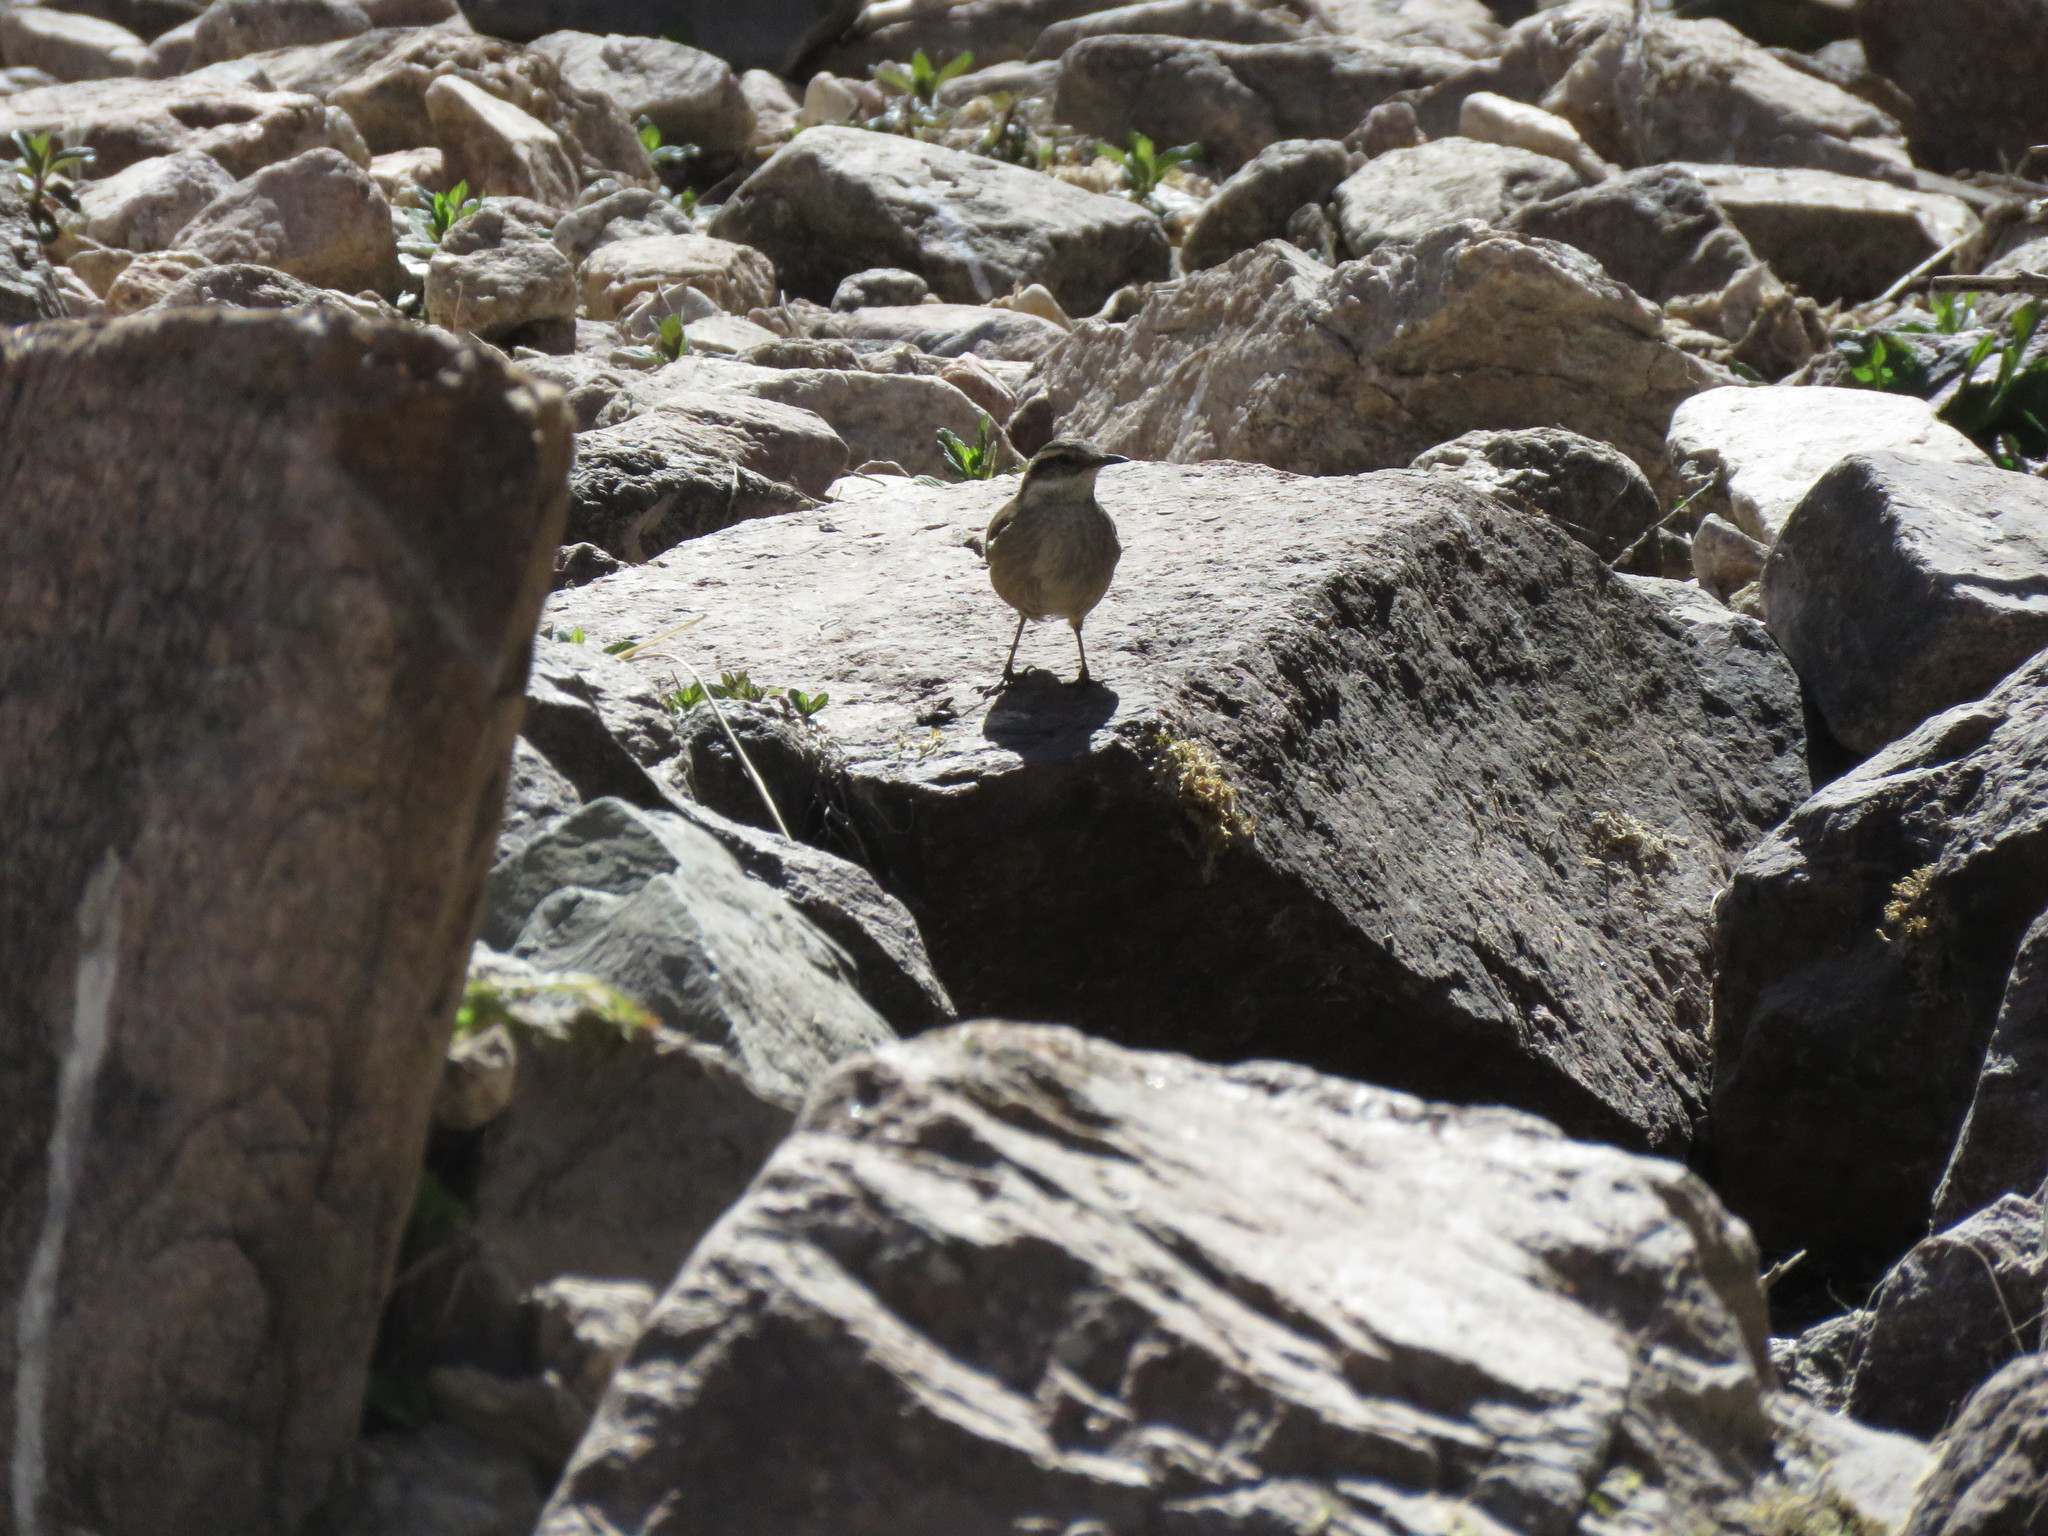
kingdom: Animalia
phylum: Chordata
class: Aves
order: Passeriformes
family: Furnariidae
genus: Cinclodes
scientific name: Cinclodes fuscus
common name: Buff-winged cinclodes
